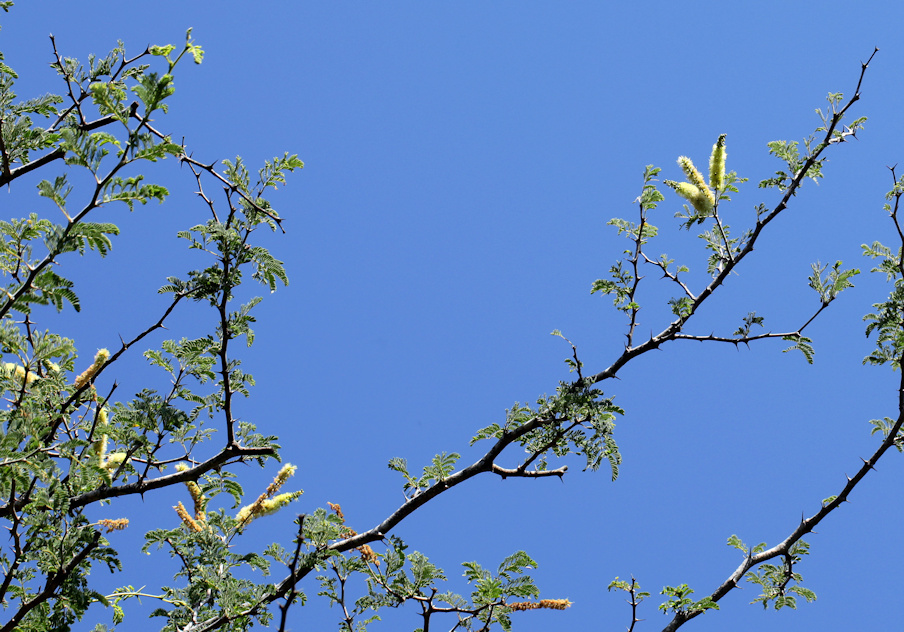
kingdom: Plantae
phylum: Tracheophyta
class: Magnoliopsida
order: Fabales
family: Fabaceae
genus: Faidherbia
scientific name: Faidherbia albida
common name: Anatree
